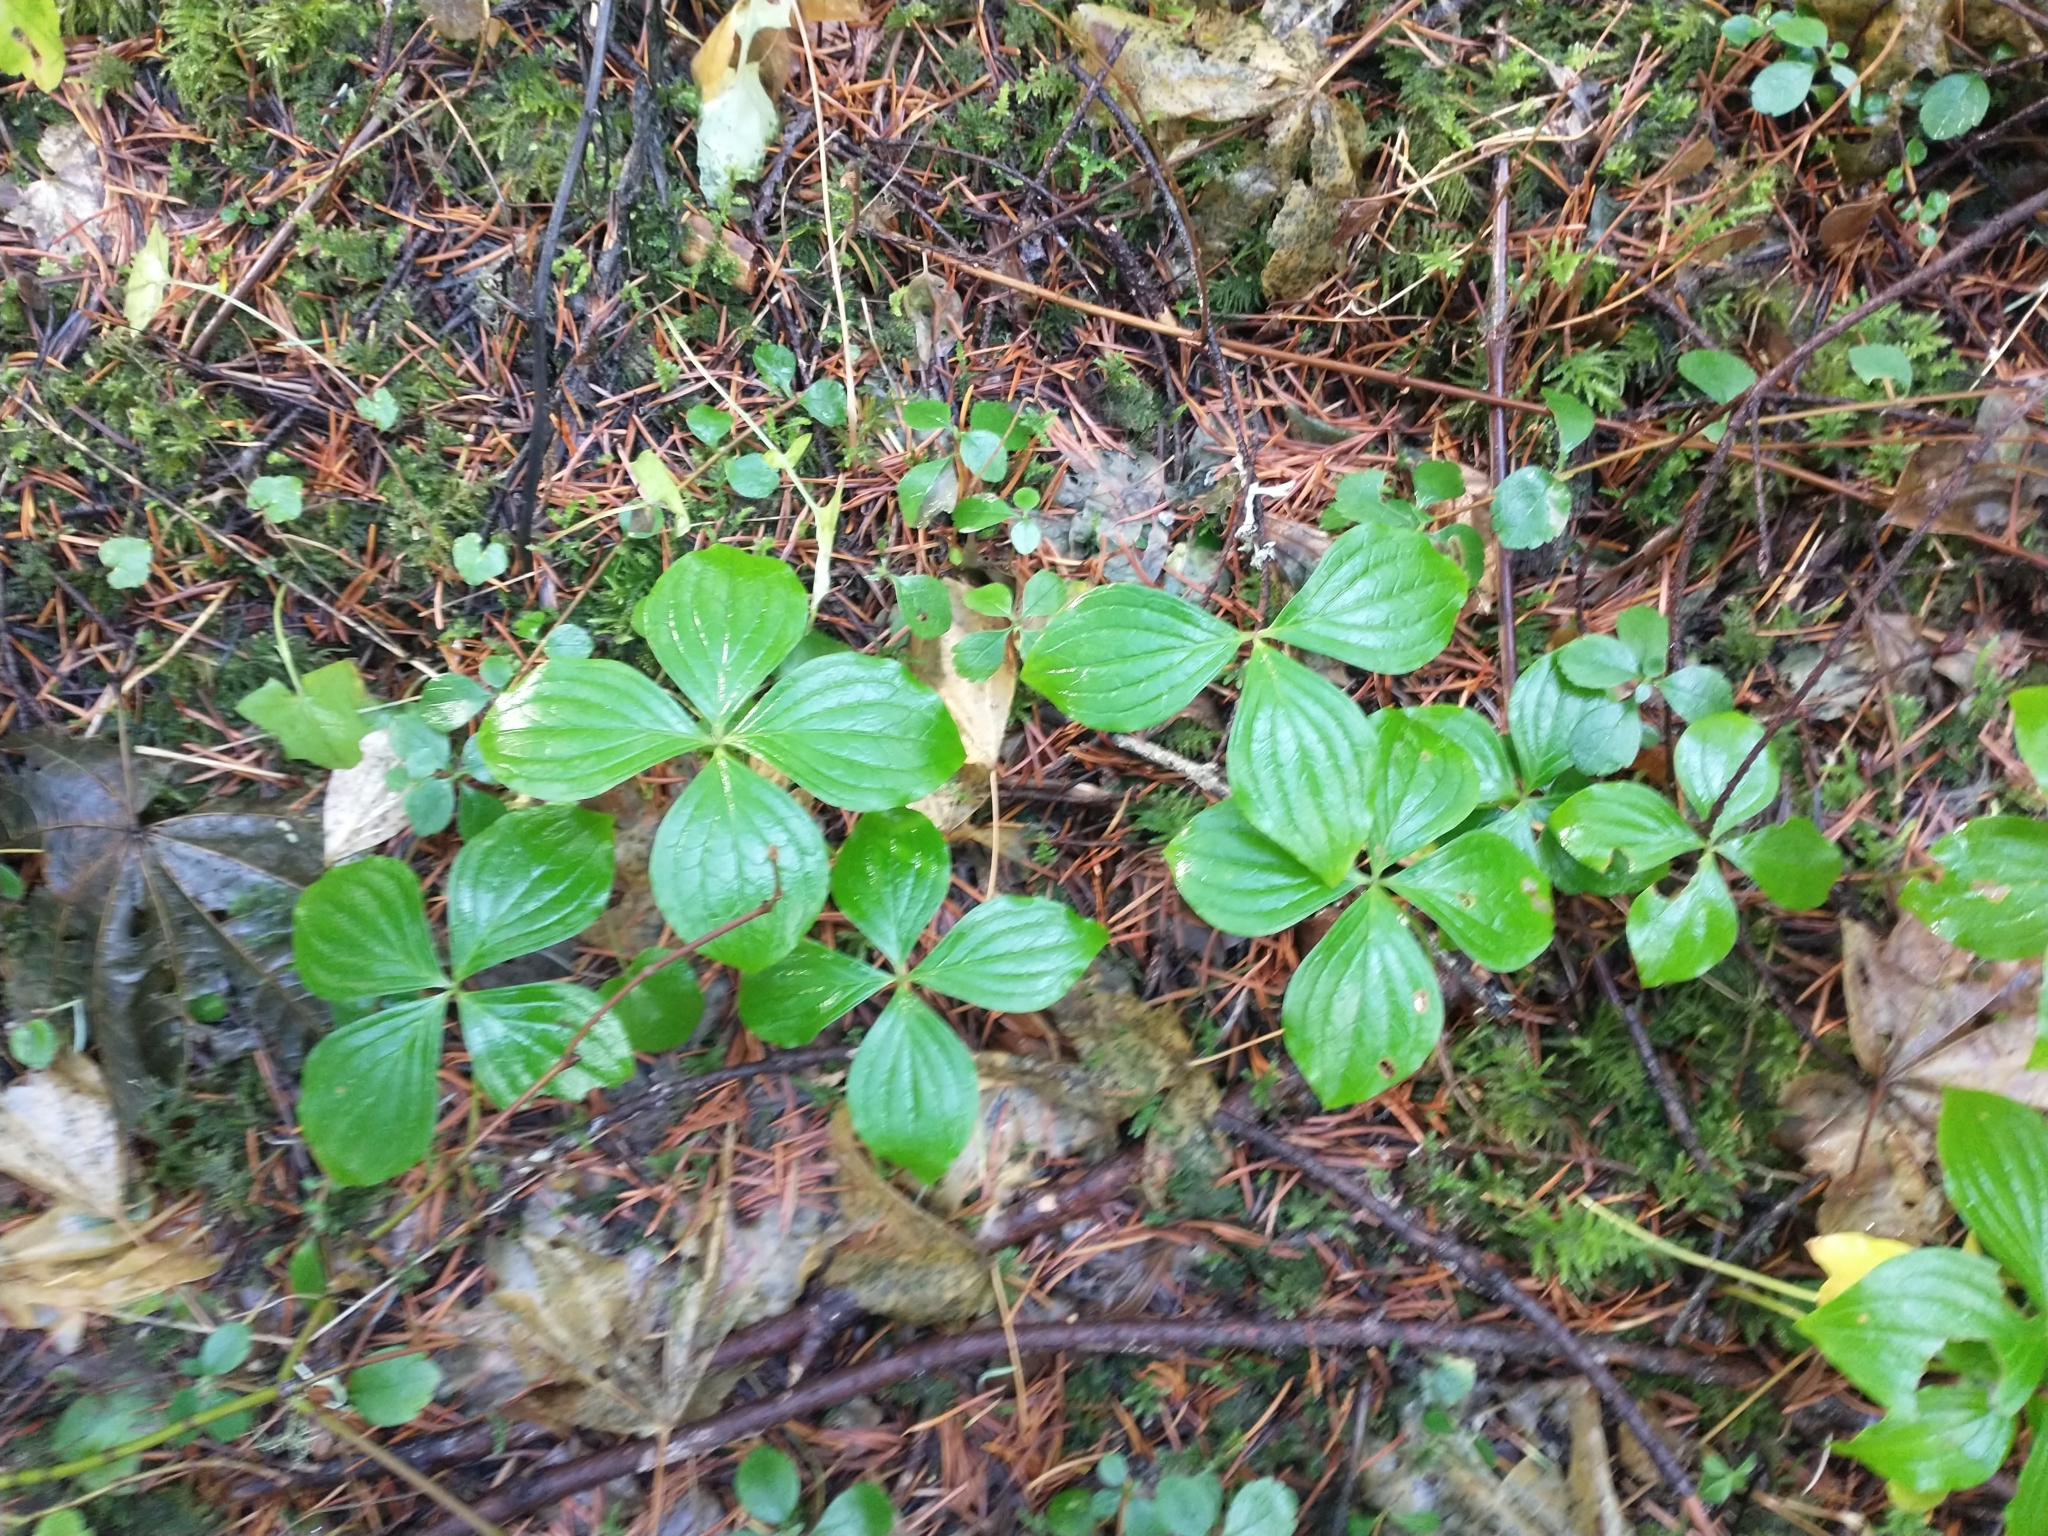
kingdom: Plantae
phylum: Tracheophyta
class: Magnoliopsida
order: Cornales
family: Cornaceae
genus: Cornus
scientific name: Cornus unalaschkensis
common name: Alaska bunchberry
